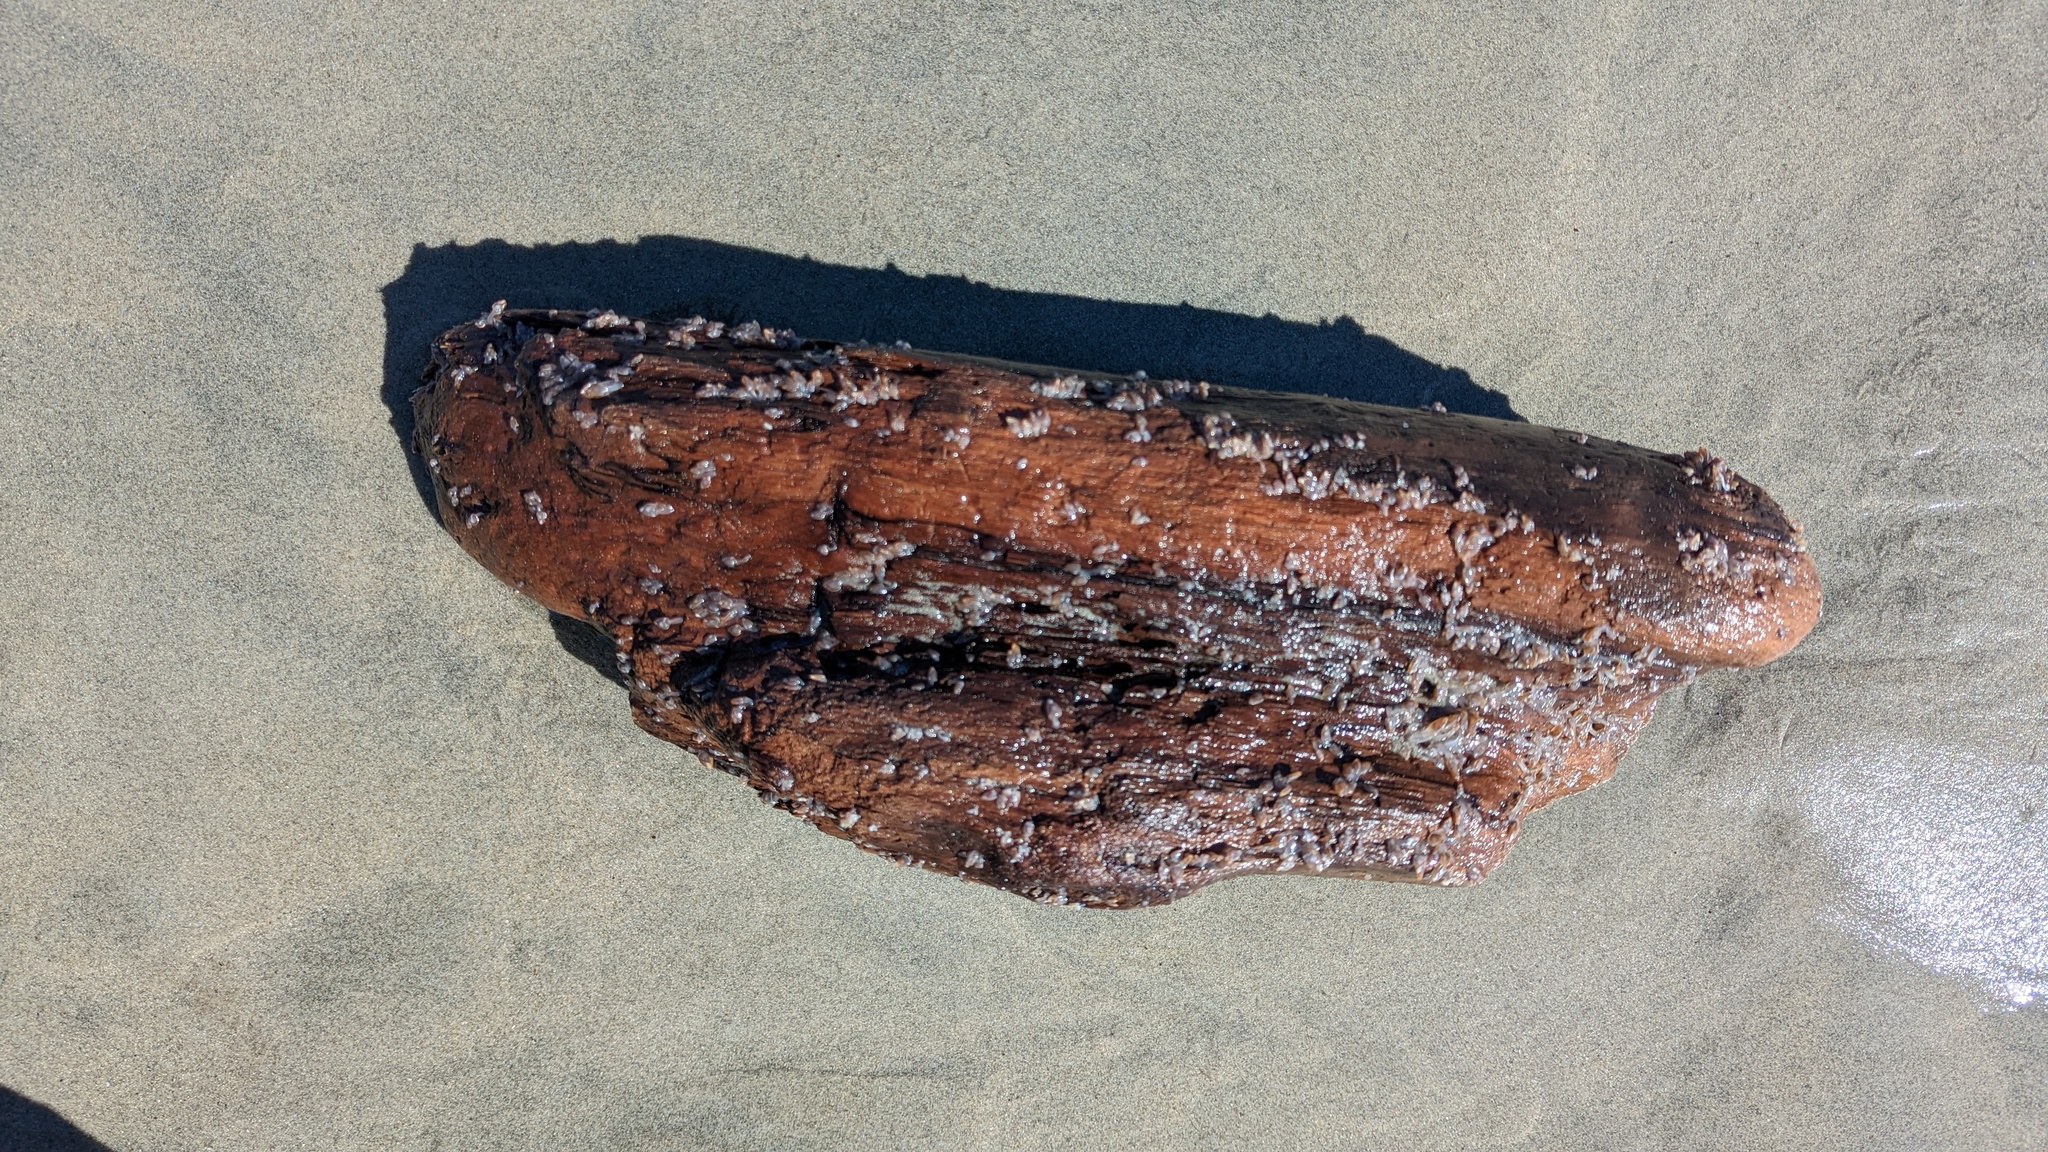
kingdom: Animalia
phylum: Arthropoda
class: Maxillopoda
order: Pedunculata
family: Lepadidae
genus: Lepas
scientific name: Lepas pacifica
